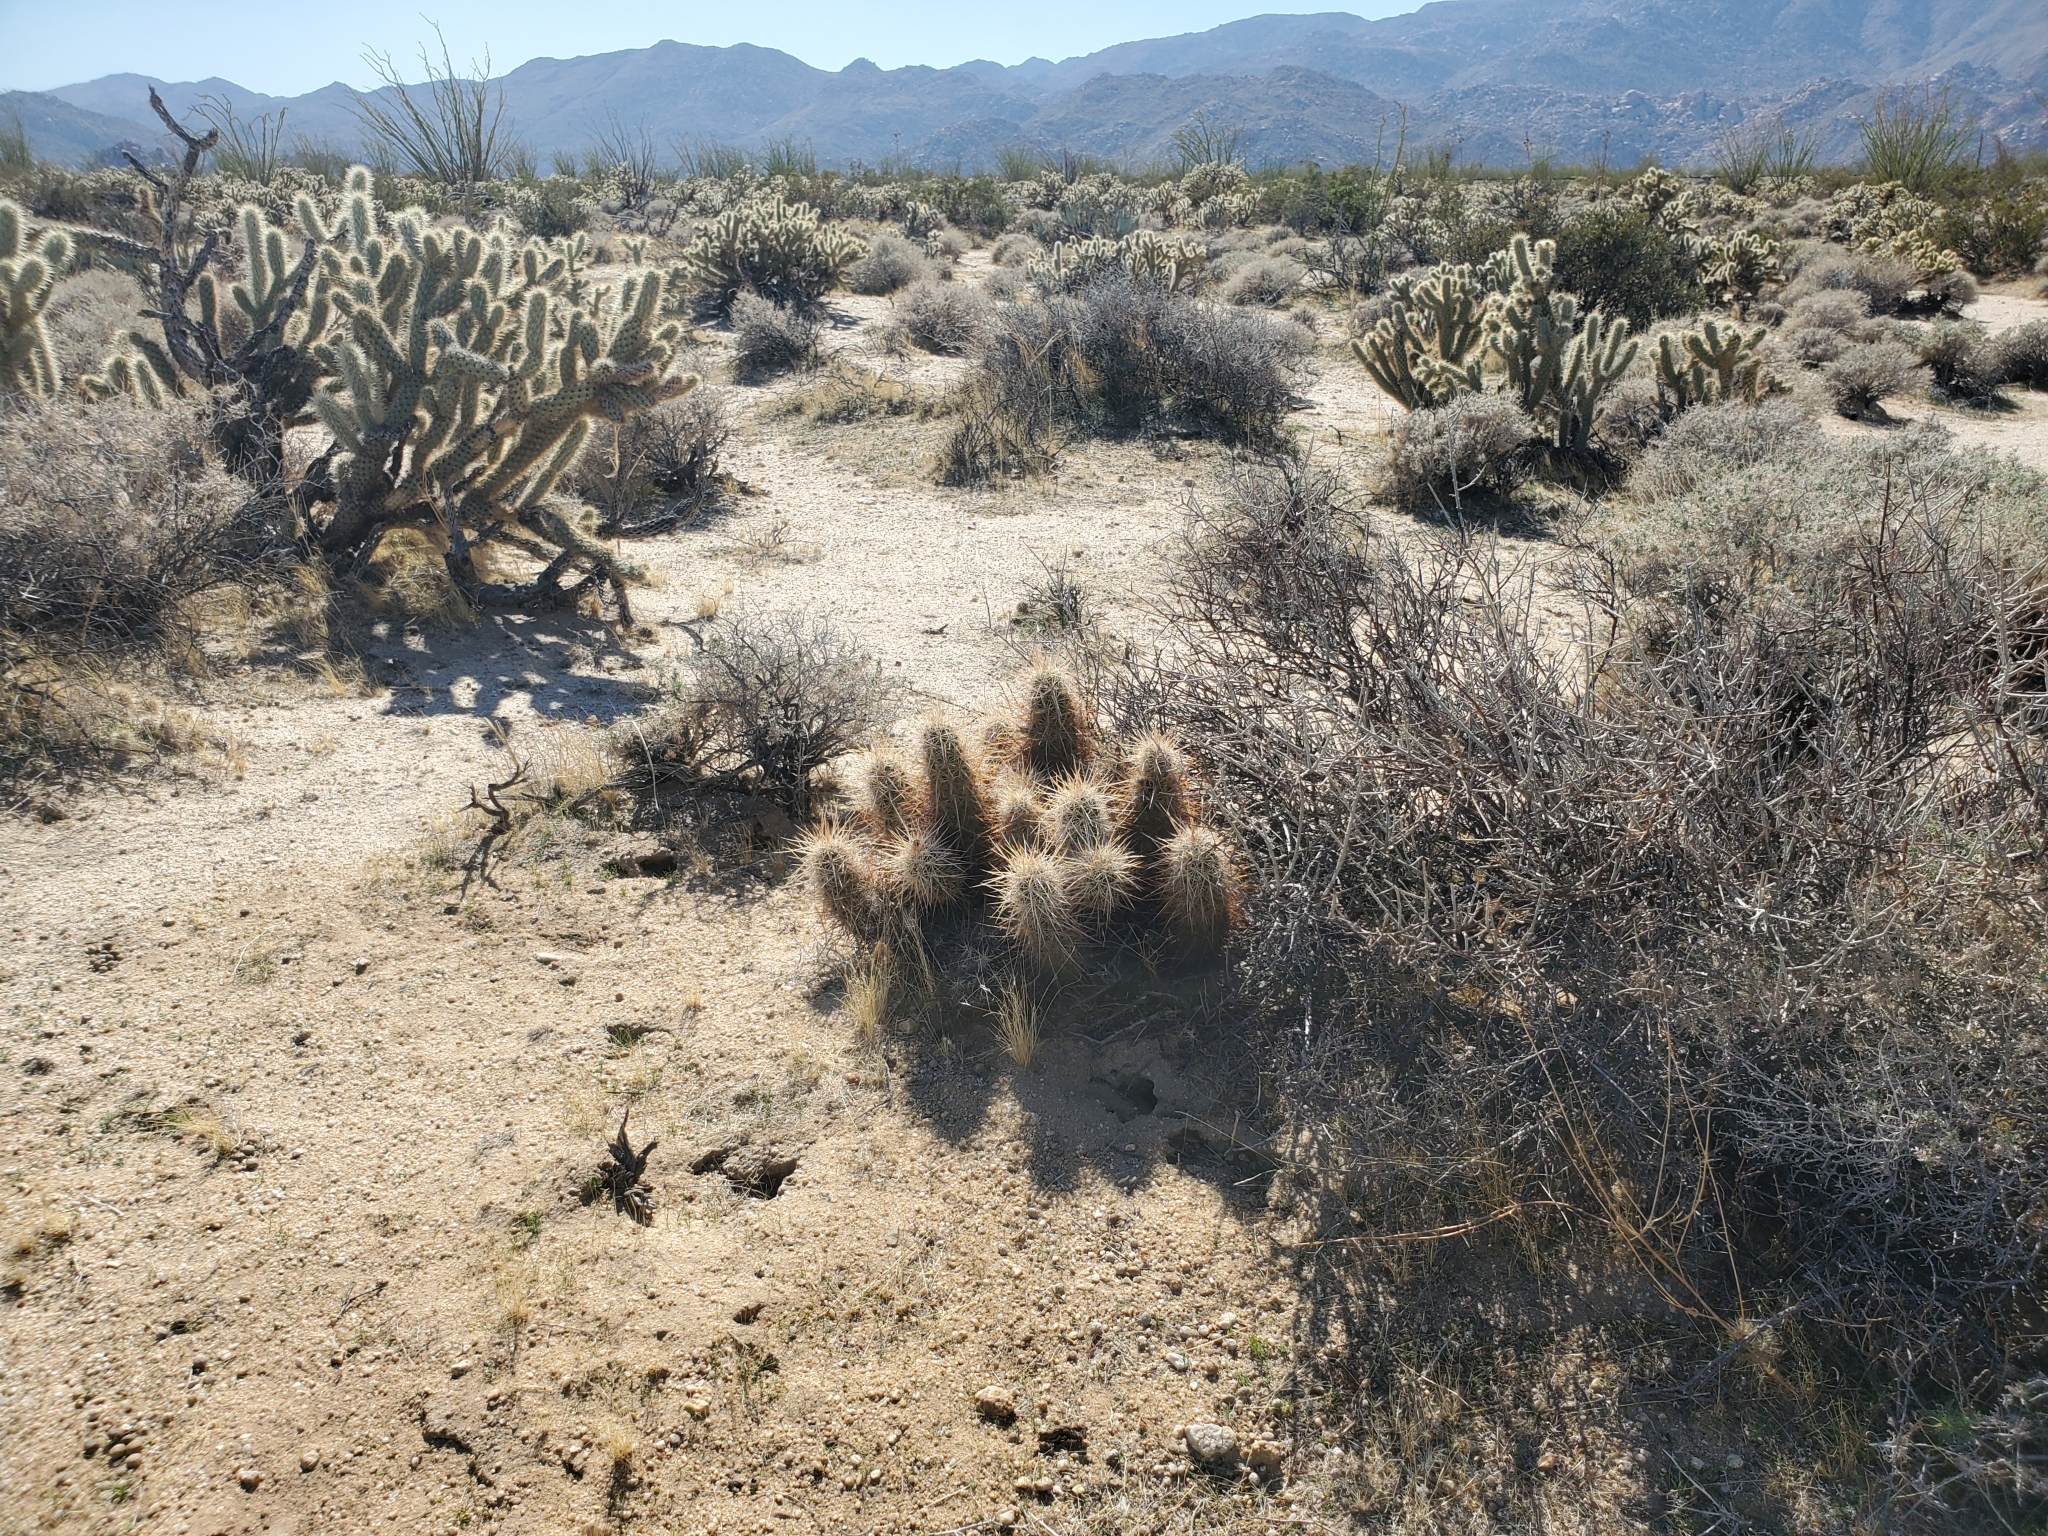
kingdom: Plantae
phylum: Tracheophyta
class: Magnoliopsida
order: Caryophyllales
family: Cactaceae
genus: Echinocereus
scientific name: Echinocereus engelmannii
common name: Engelmann's hedgehog cactus
